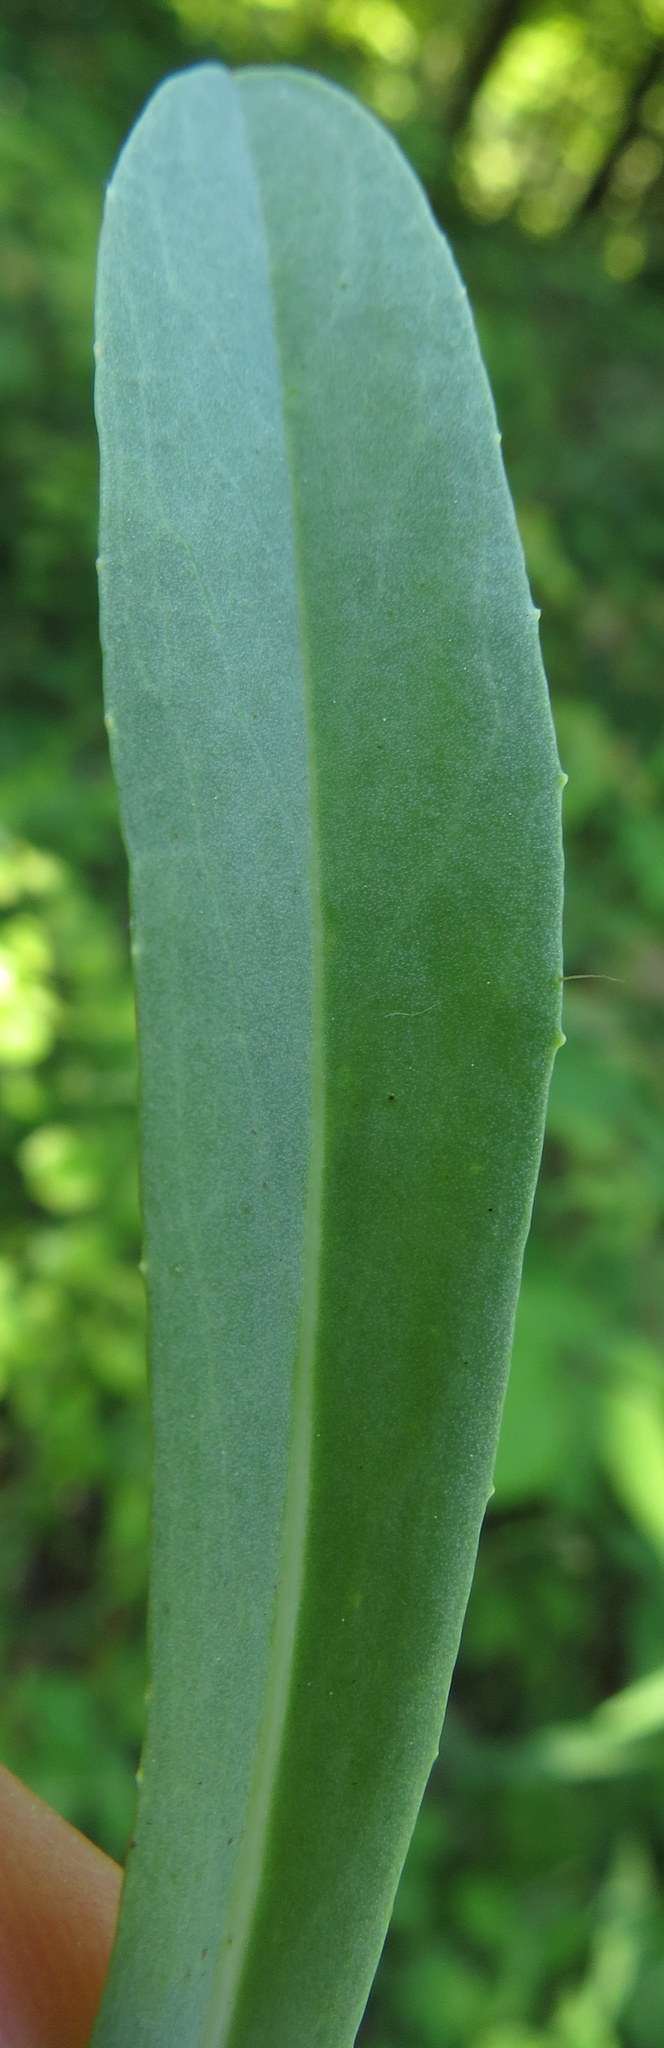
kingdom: Plantae
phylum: Tracheophyta
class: Magnoliopsida
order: Asterales
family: Asteraceae
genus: Pilosella
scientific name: Pilosella piloselloides
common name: Glaucous king-devil
